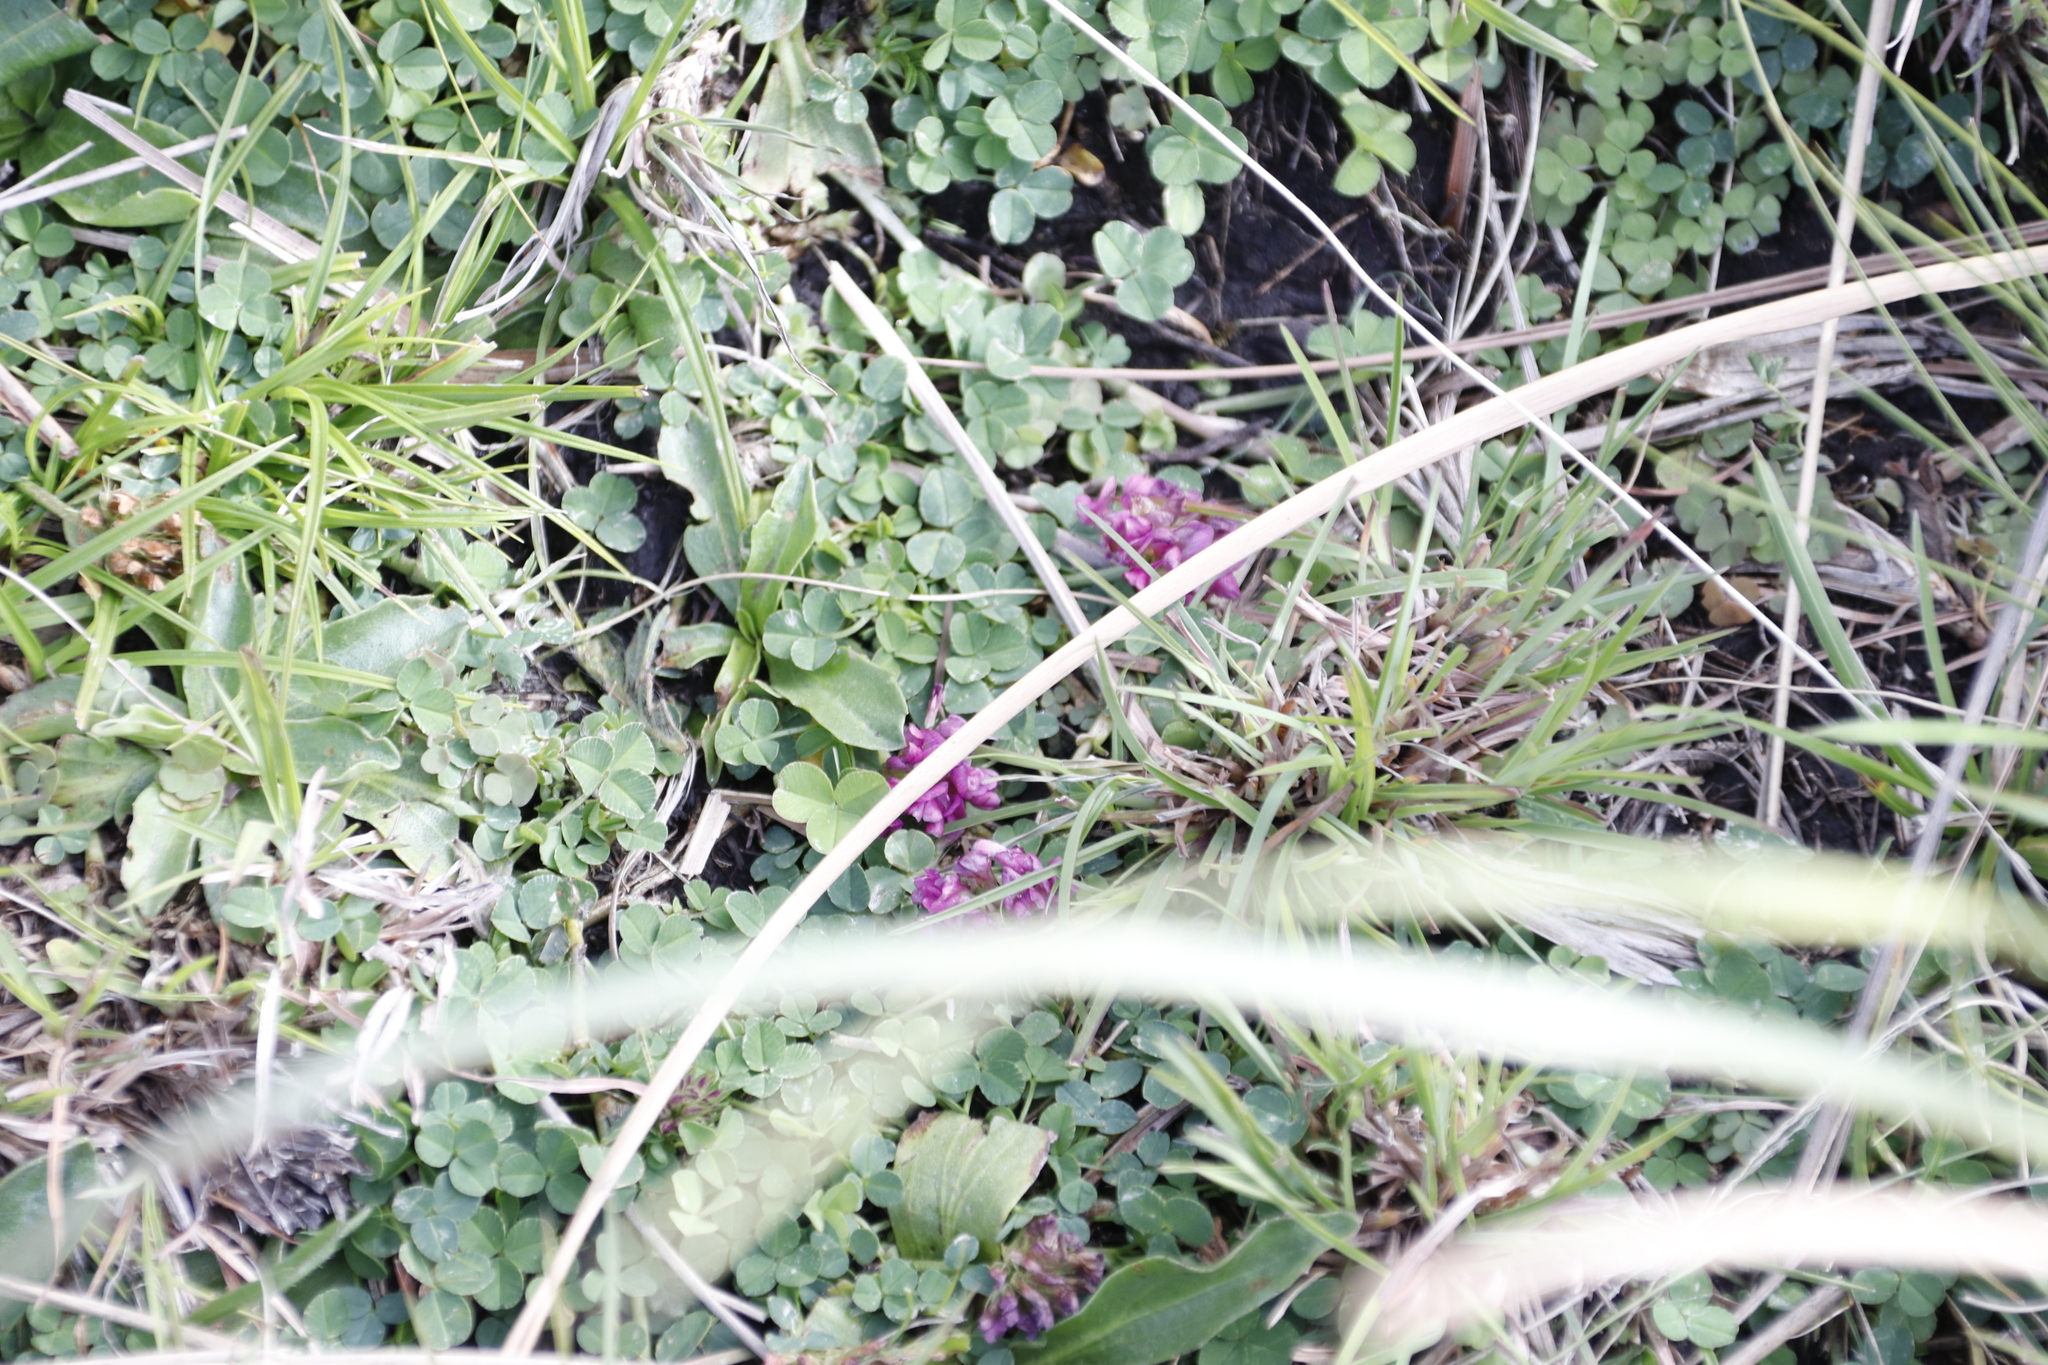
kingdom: Plantae
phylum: Tracheophyta
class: Magnoliopsida
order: Fabales
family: Fabaceae
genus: Trifolium
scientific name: Trifolium burchellianum
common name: Burchell's clover
